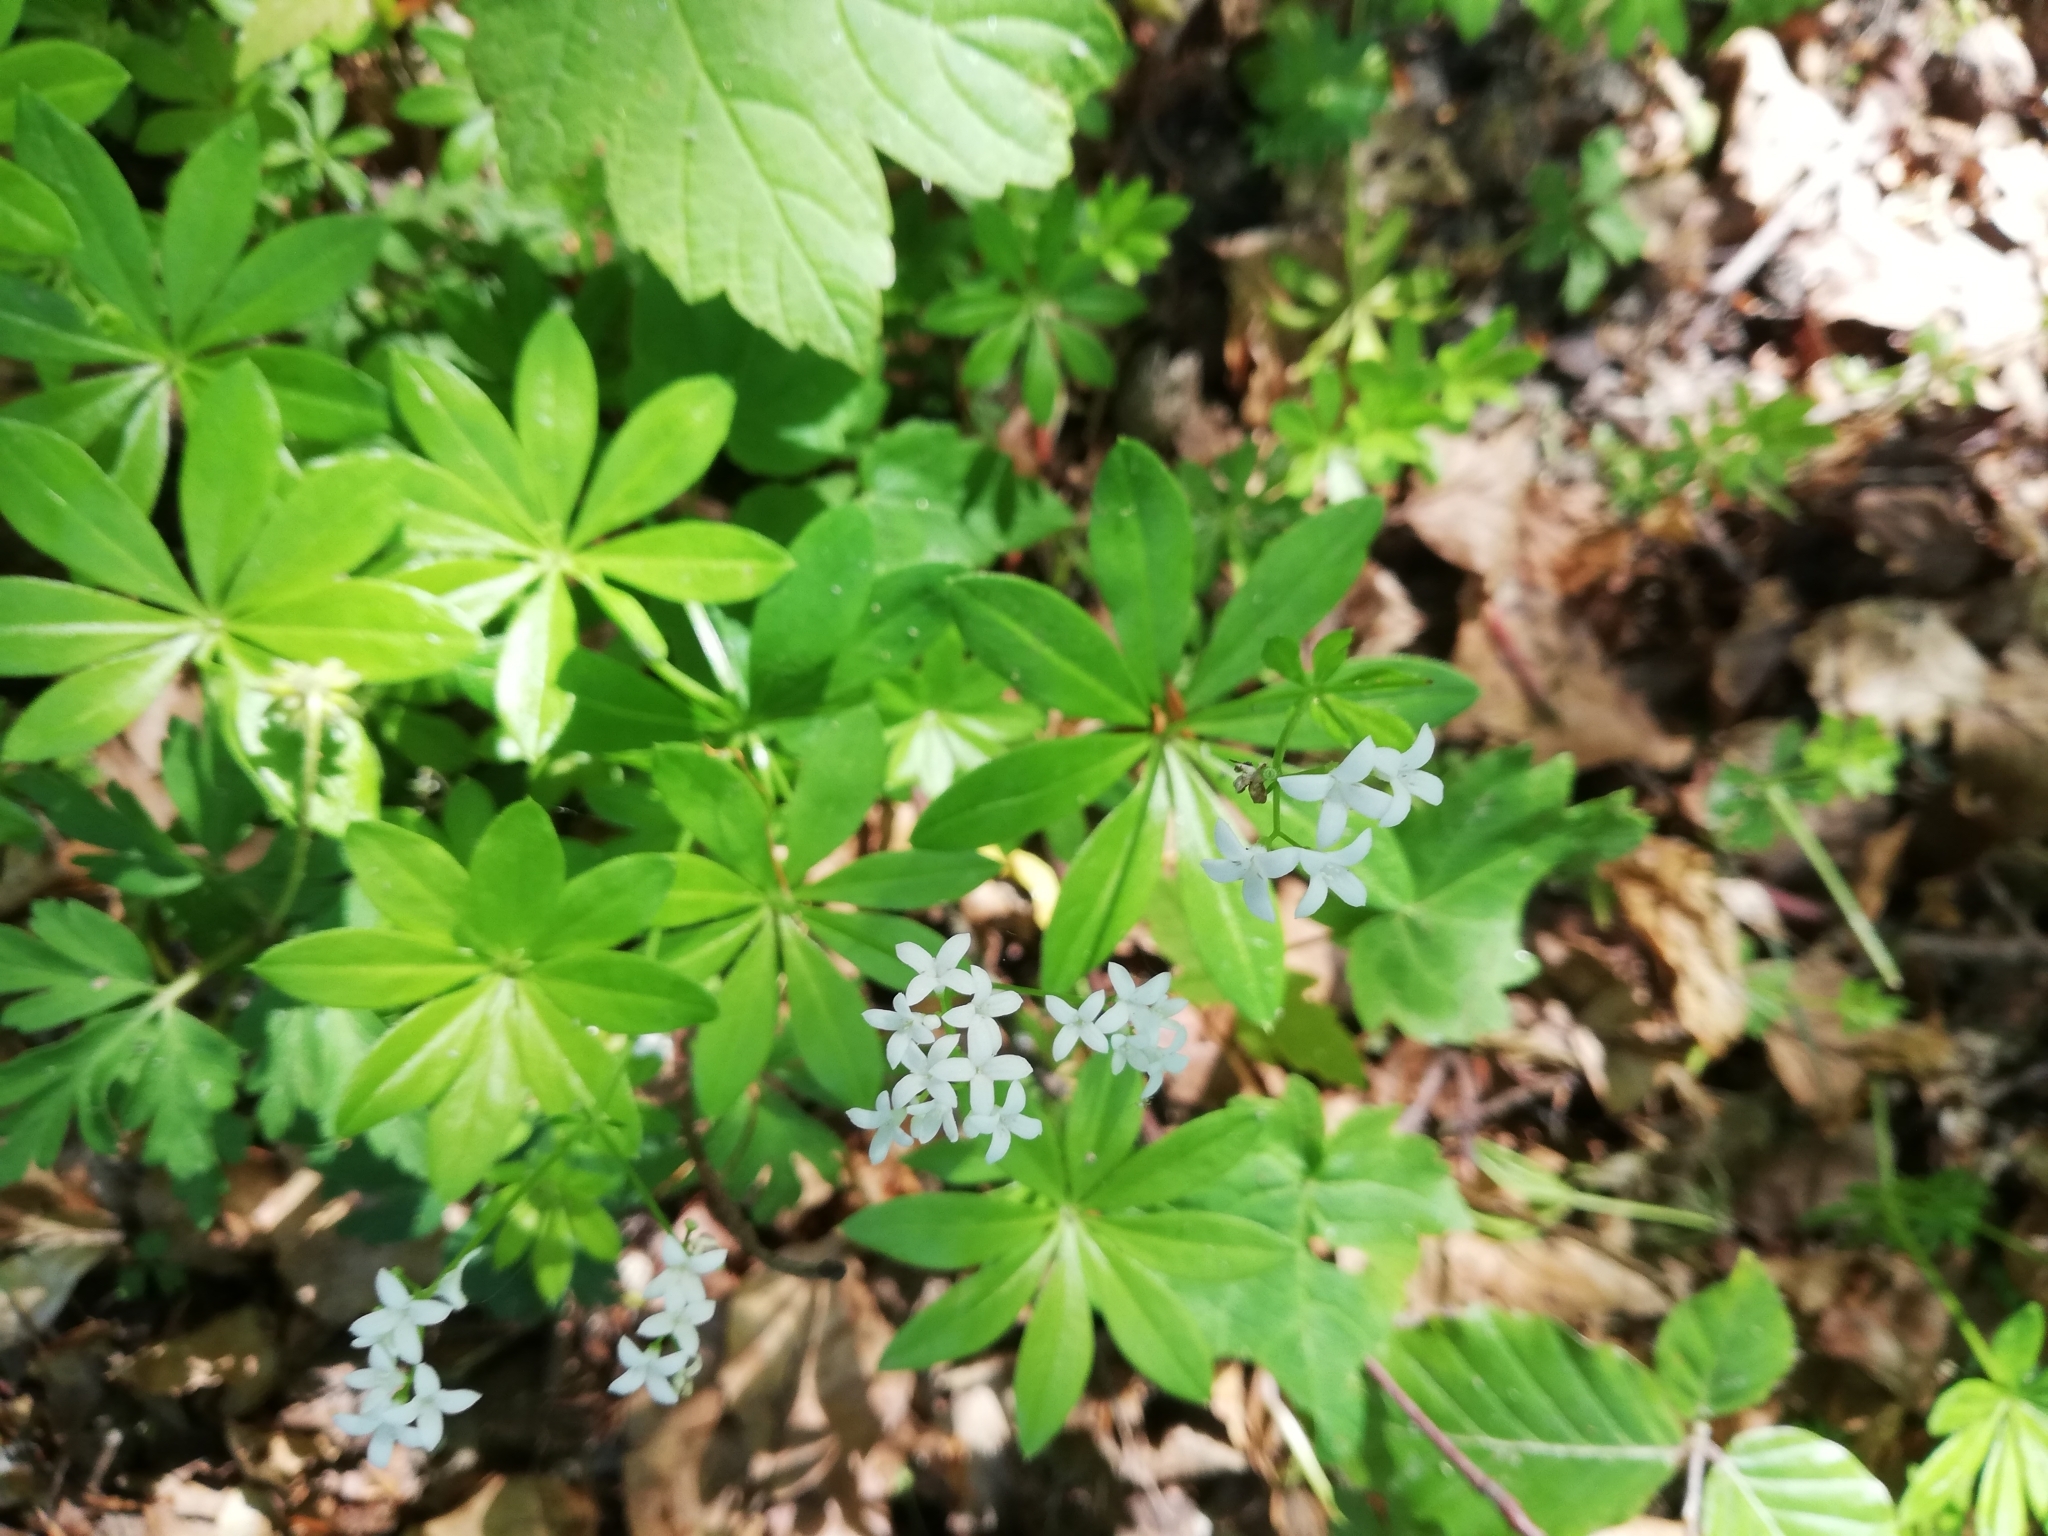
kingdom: Plantae
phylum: Tracheophyta
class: Magnoliopsida
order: Gentianales
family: Rubiaceae
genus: Galium
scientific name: Galium odoratum
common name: Sweet woodruff
